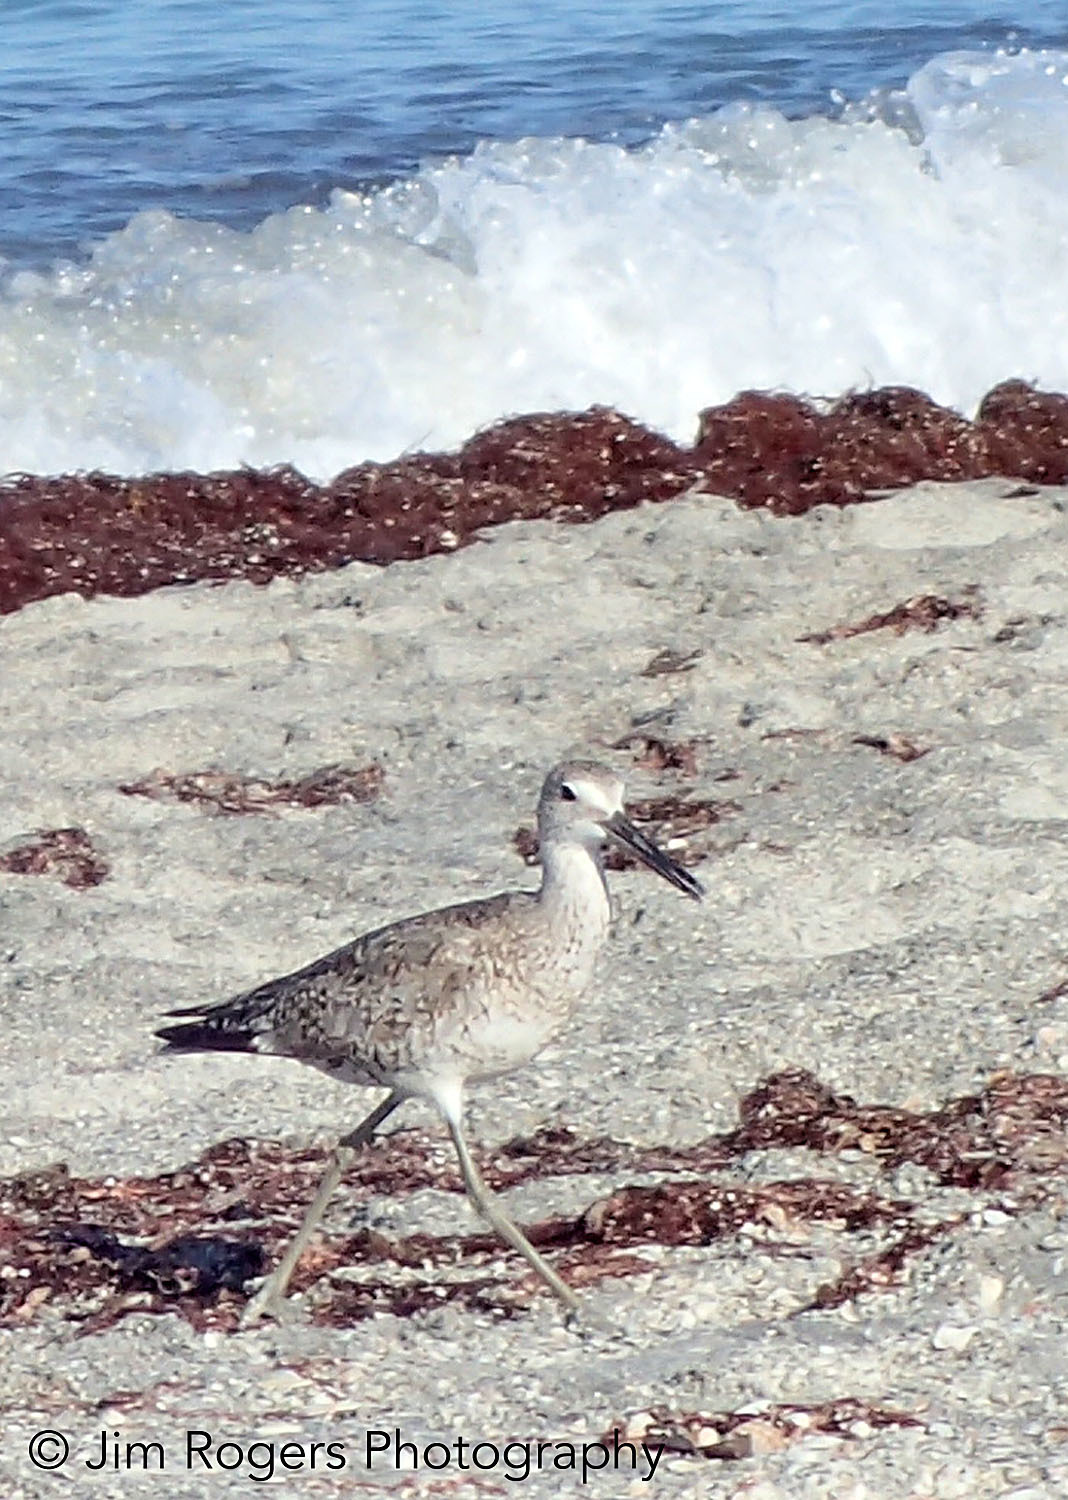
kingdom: Animalia
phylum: Chordata
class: Aves
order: Charadriiformes
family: Scolopacidae
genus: Tringa
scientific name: Tringa semipalmata
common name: Willet
